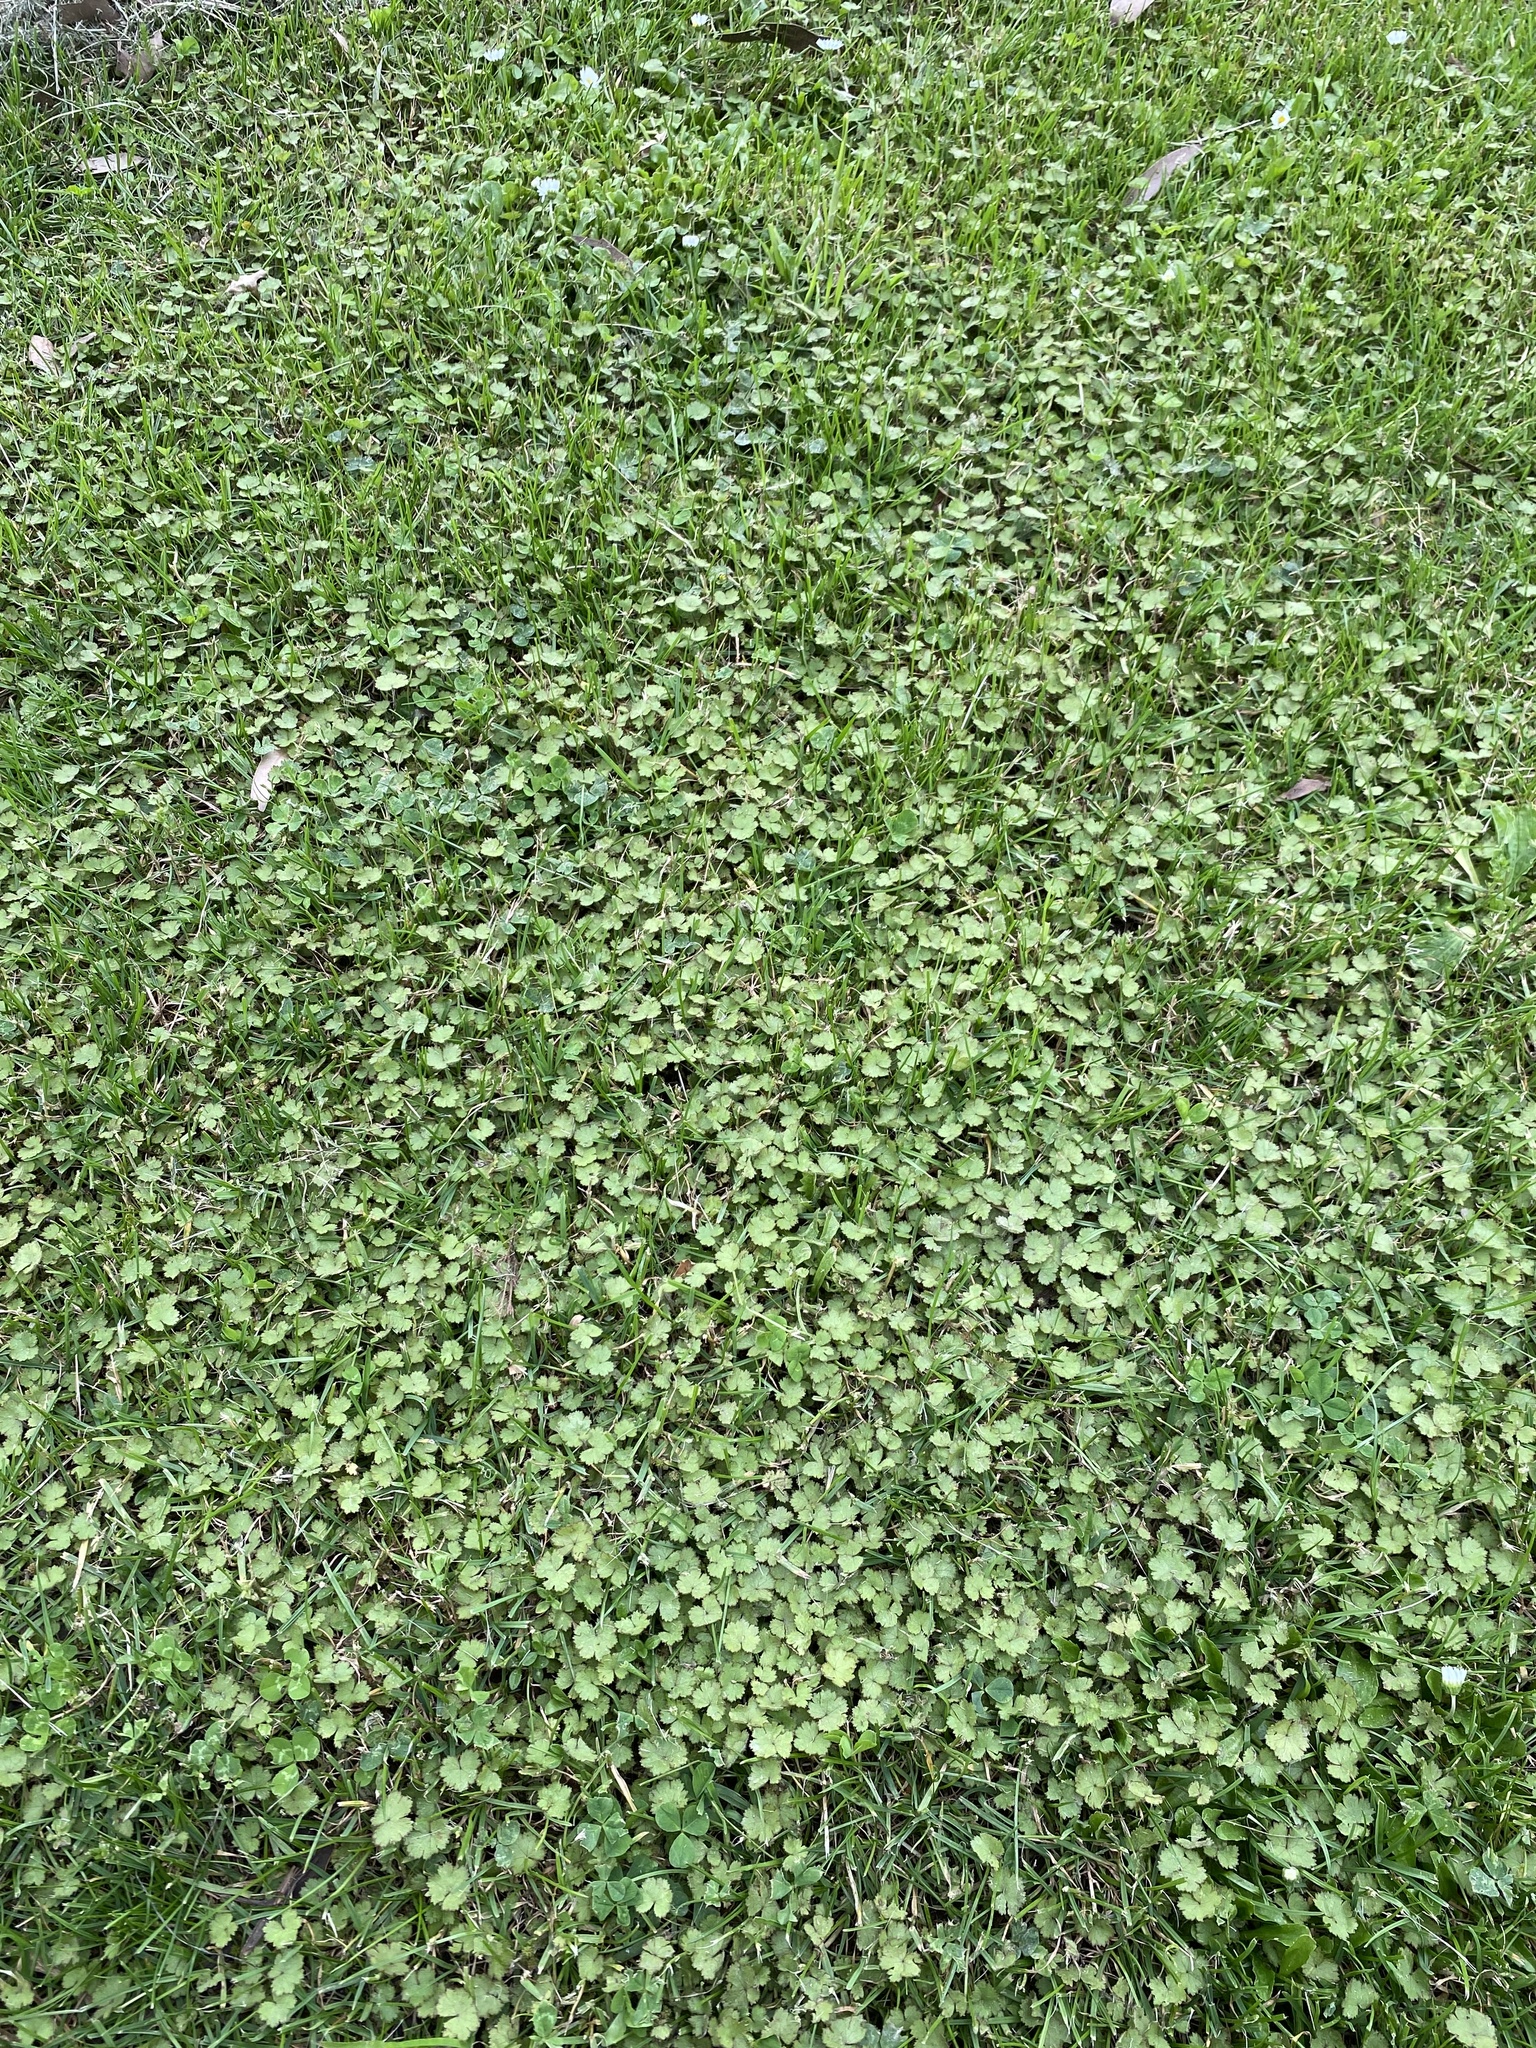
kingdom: Plantae
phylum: Tracheophyta
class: Magnoliopsida
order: Apiales
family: Araliaceae
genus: Hydrocotyle
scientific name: Hydrocotyle moschata
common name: Hairy pennywort
